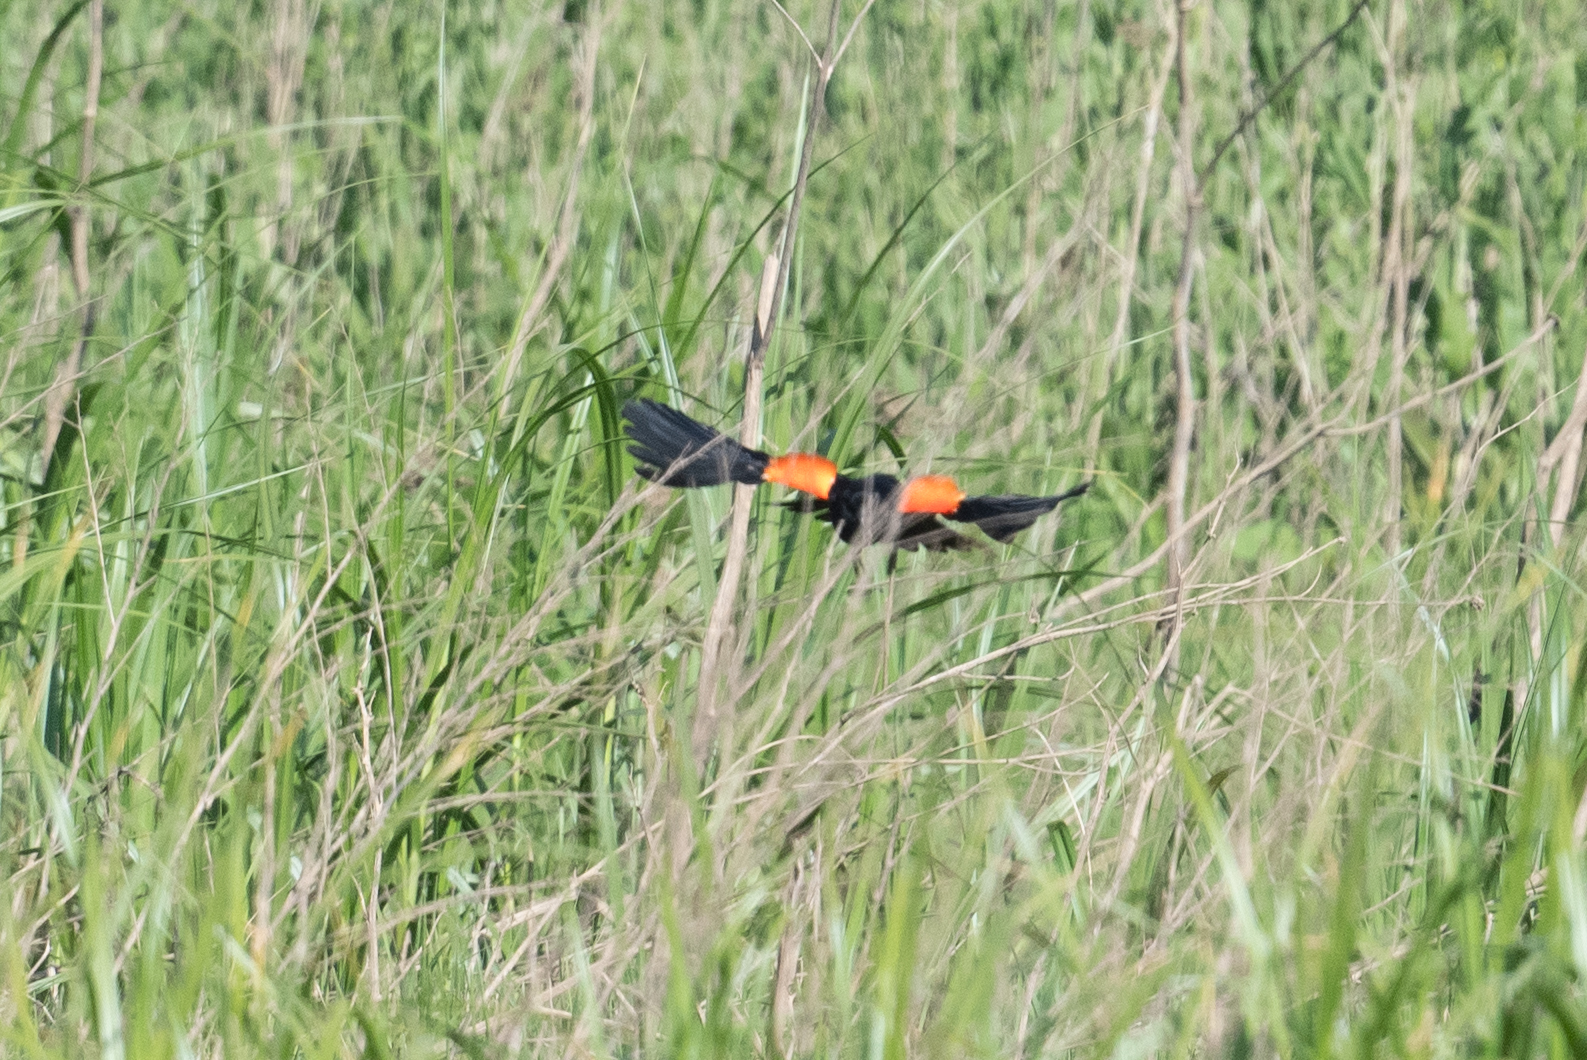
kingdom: Animalia
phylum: Chordata
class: Aves
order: Passeriformes
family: Icteridae
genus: Agelaius
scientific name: Agelaius phoeniceus
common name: Red-winged blackbird
